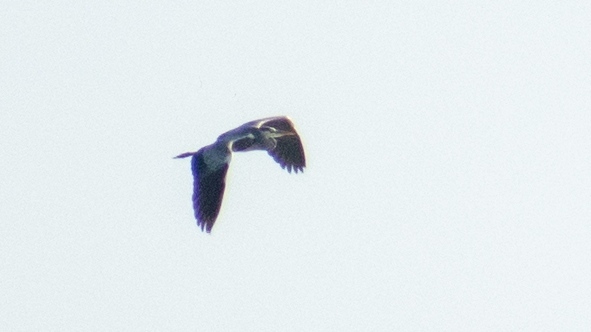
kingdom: Animalia
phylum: Chordata
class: Aves
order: Pelecaniformes
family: Ardeidae
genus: Ardea
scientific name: Ardea cinerea
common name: Grey heron
